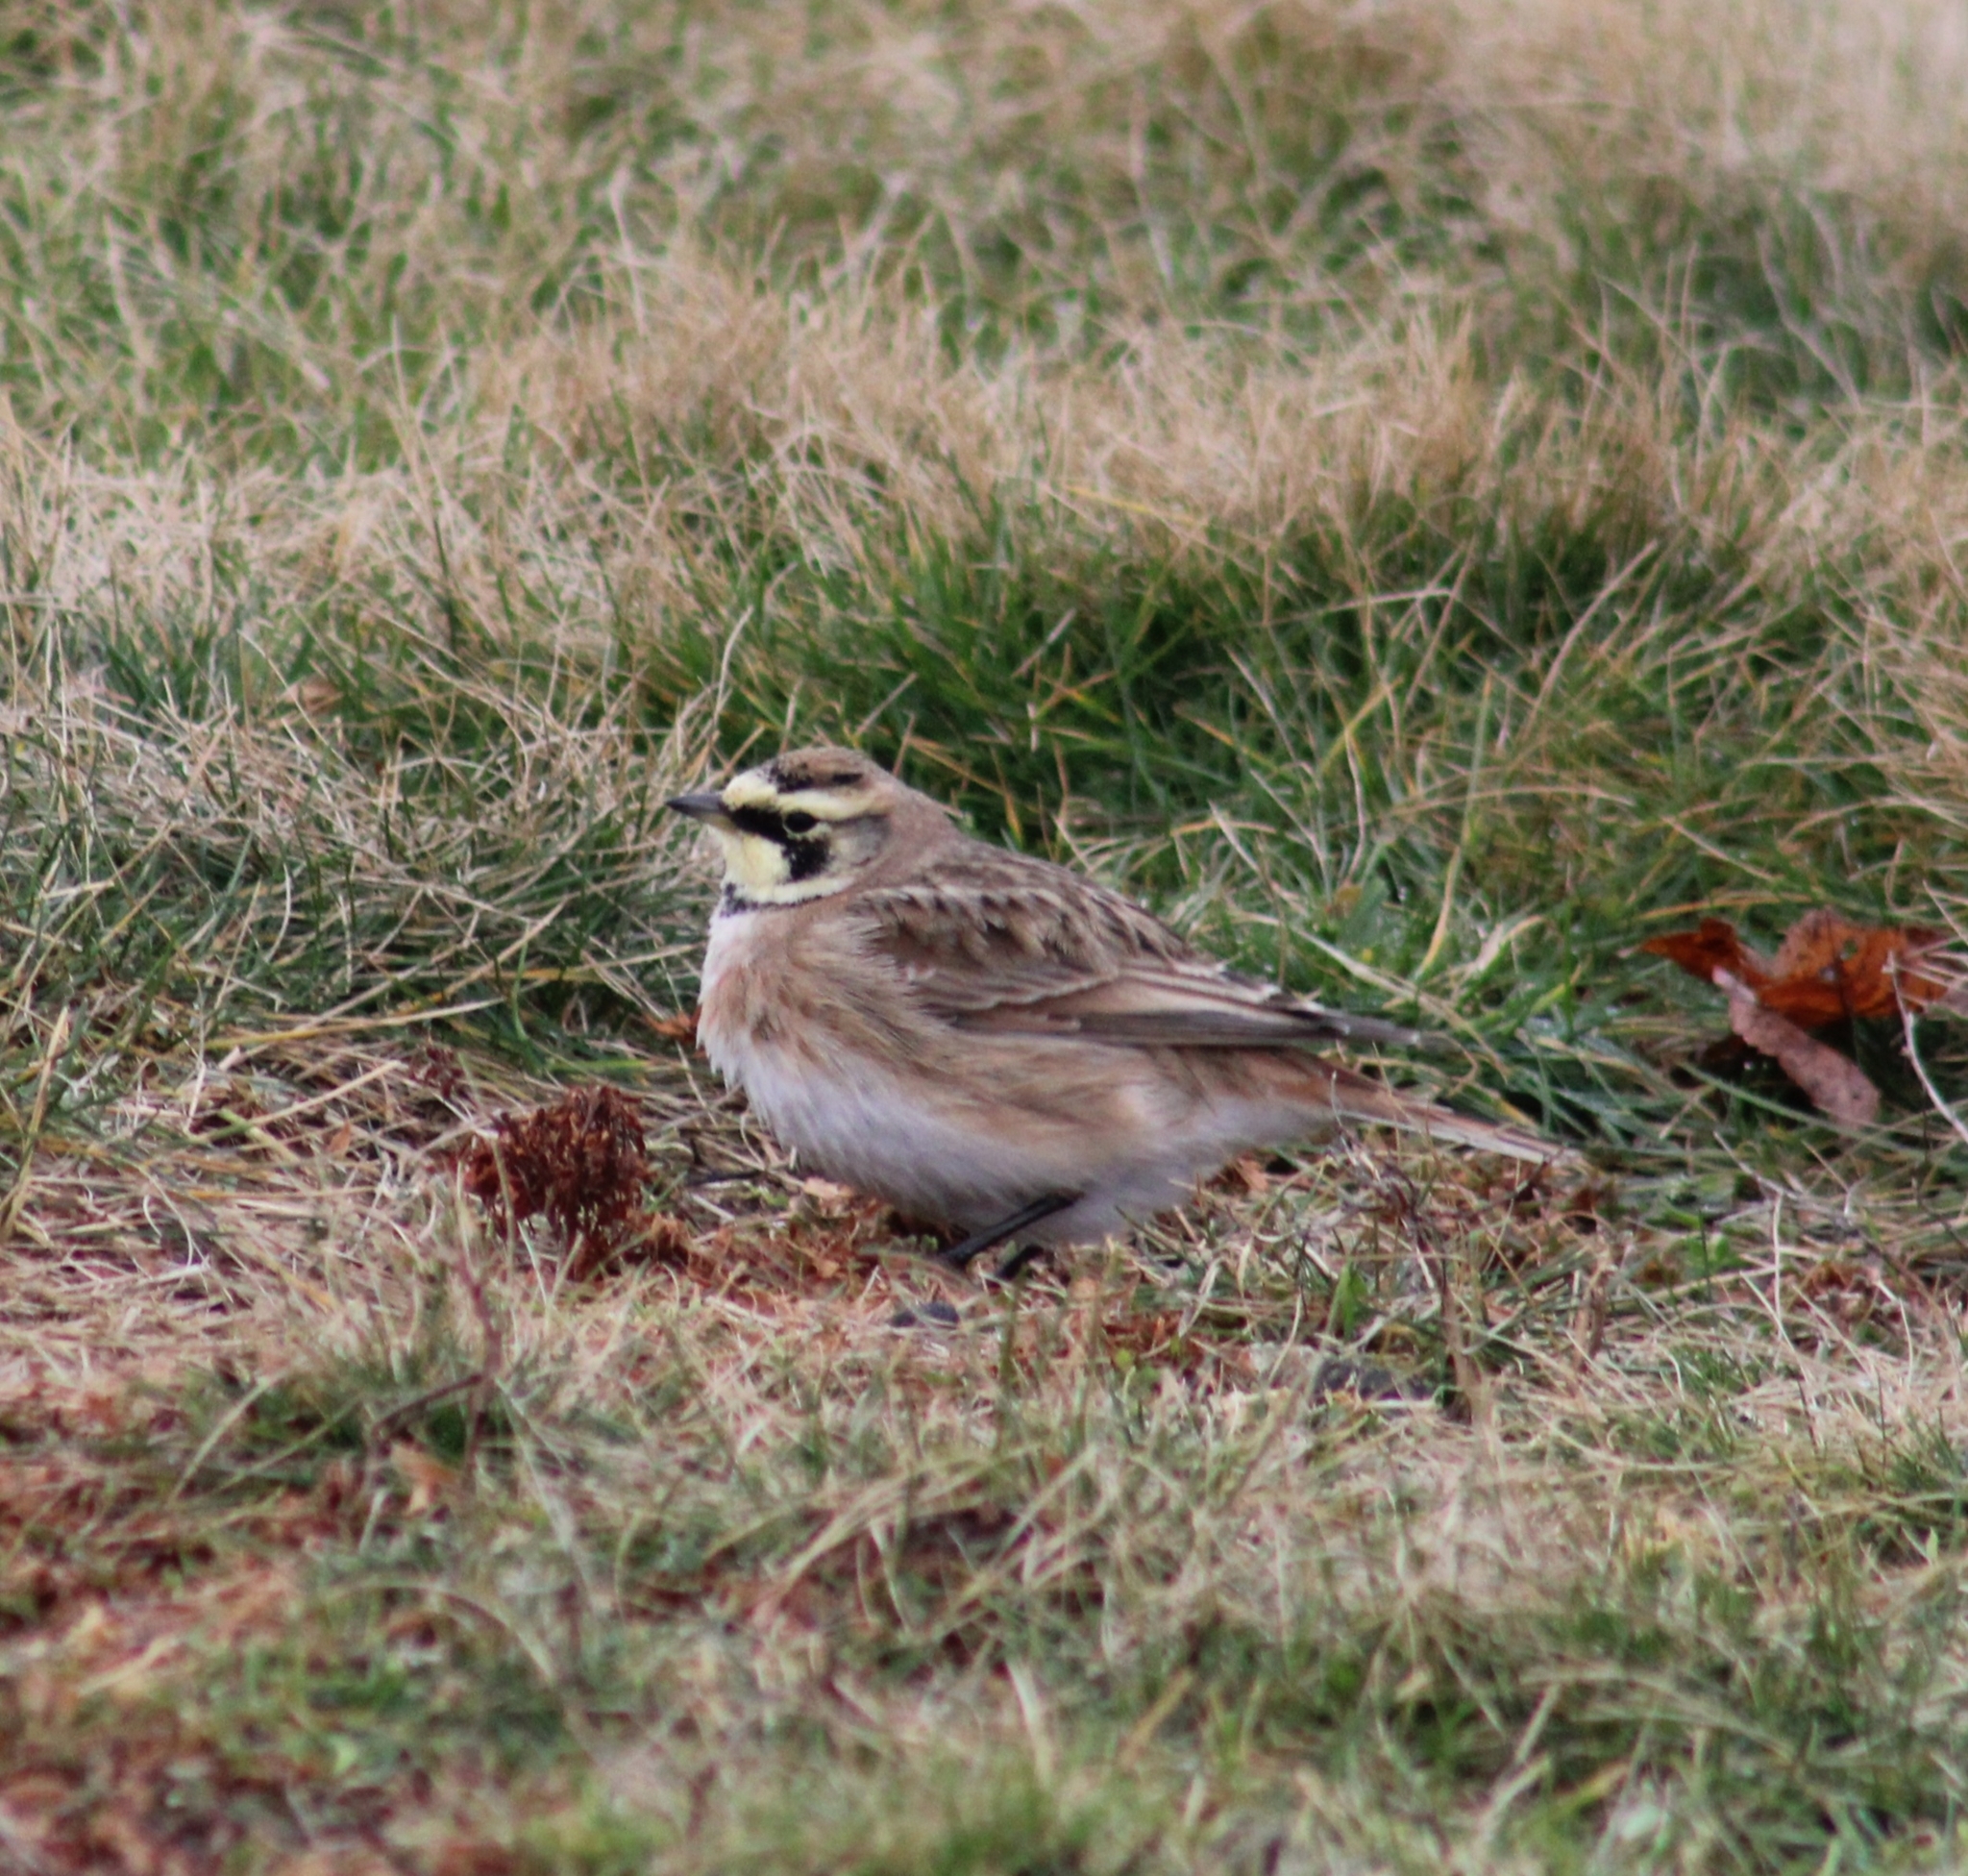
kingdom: Animalia
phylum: Chordata
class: Aves
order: Passeriformes
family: Alaudidae
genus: Eremophila
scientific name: Eremophila alpestris
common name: Horned lark
